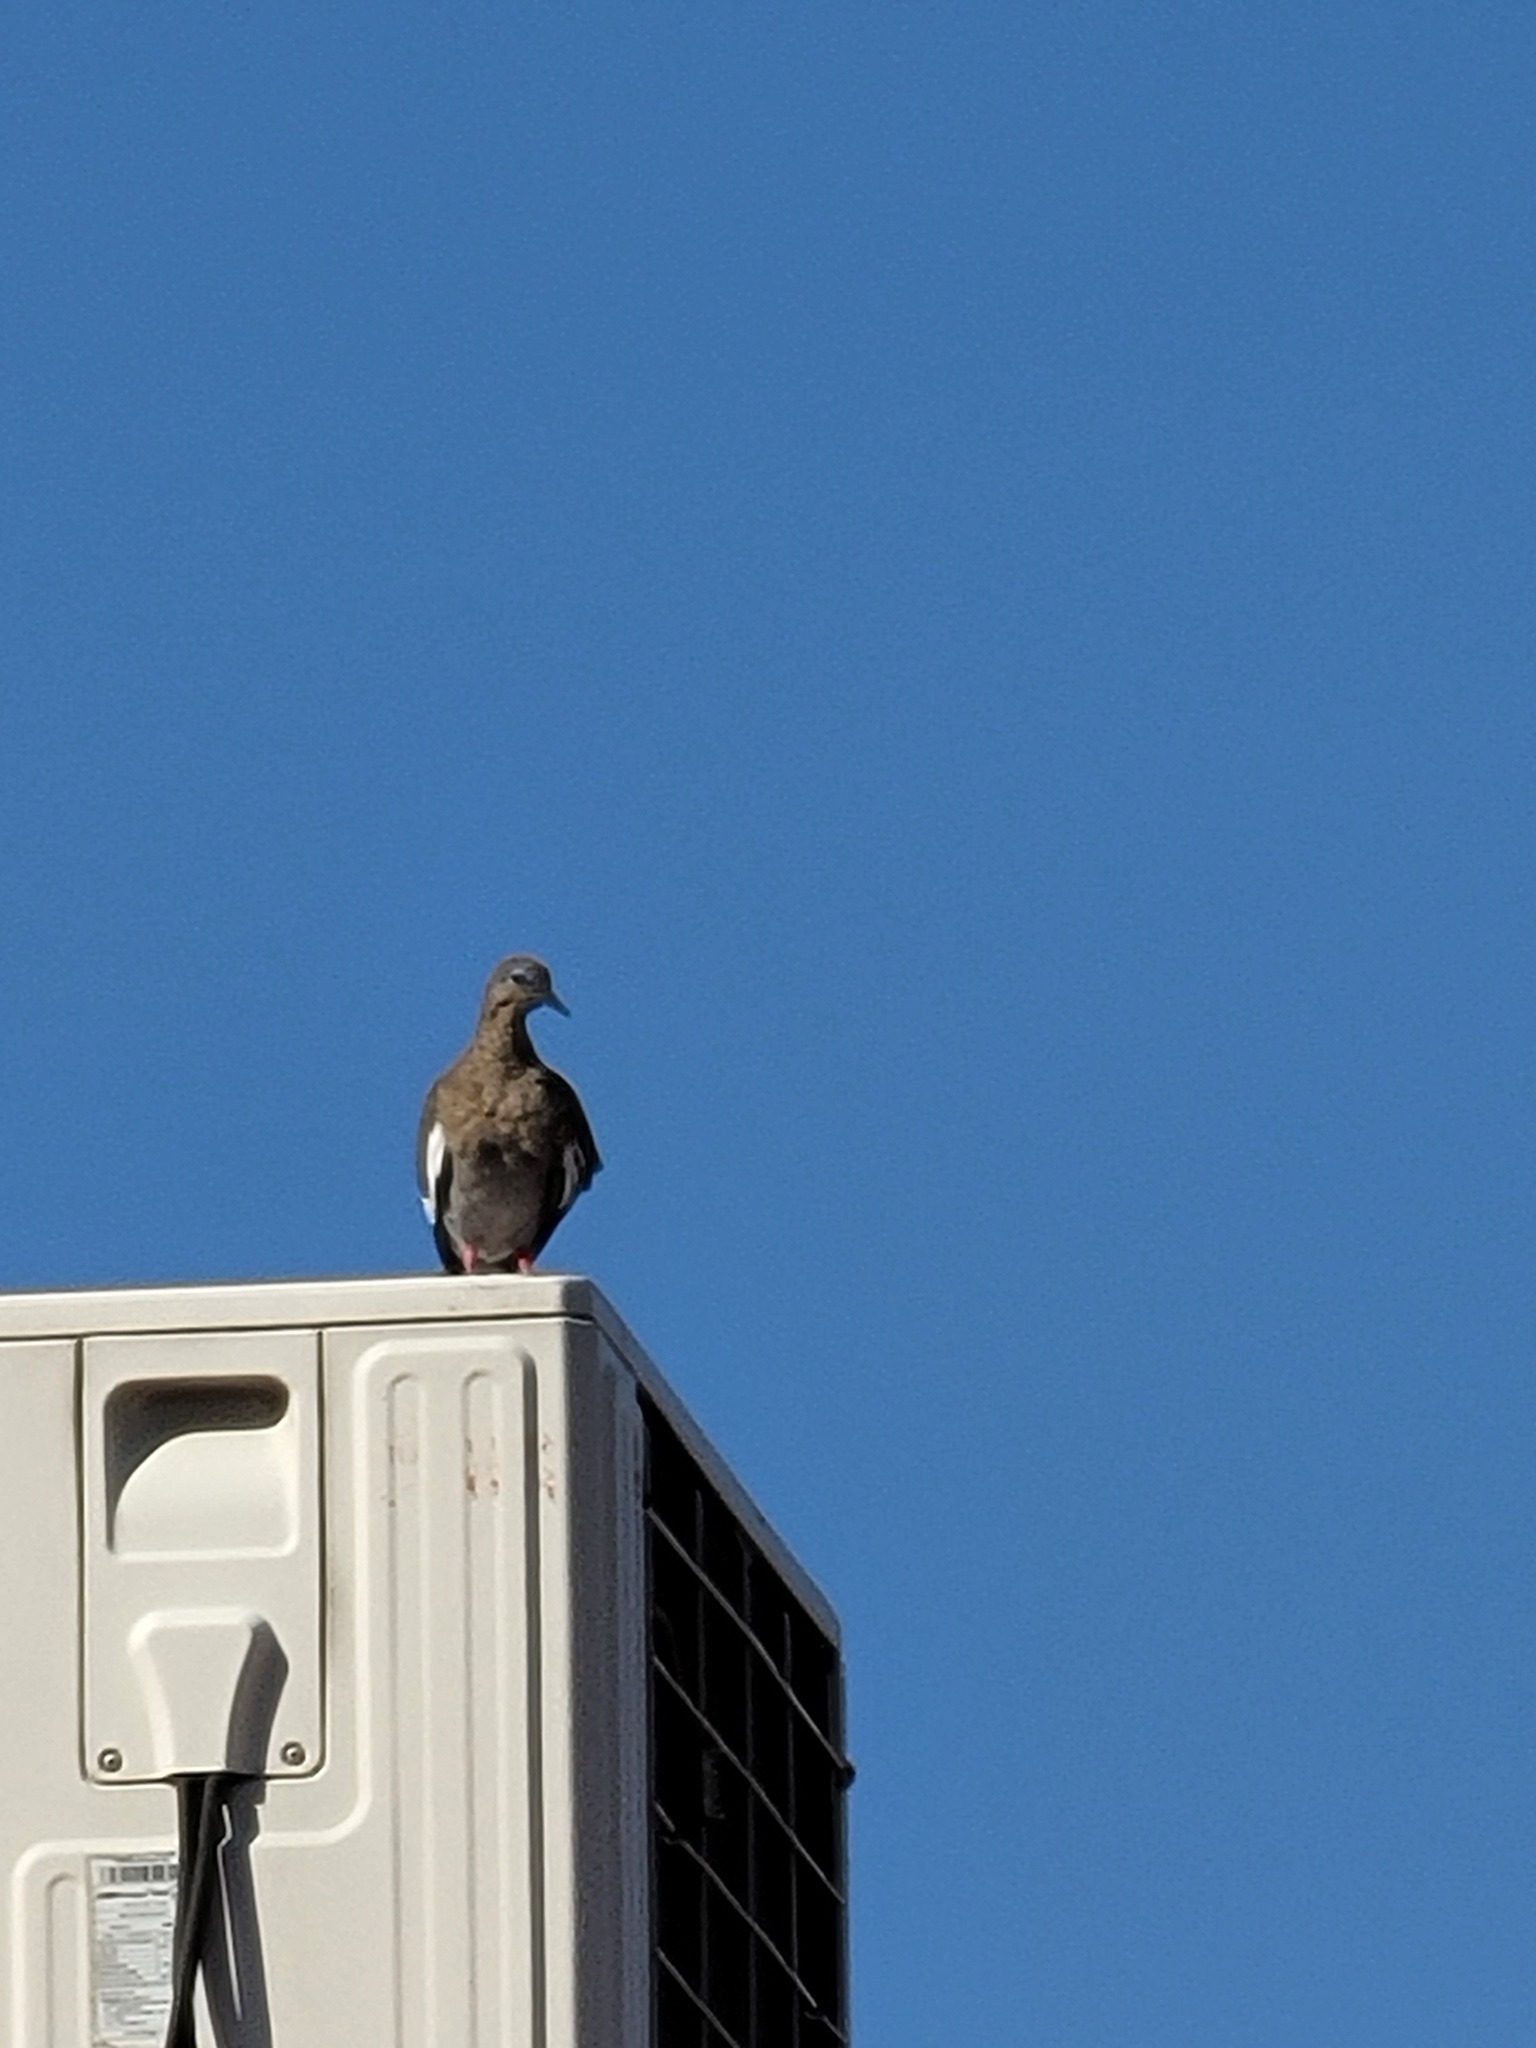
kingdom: Animalia
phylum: Chordata
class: Aves
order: Columbiformes
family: Columbidae
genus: Zenaida
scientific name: Zenaida asiatica
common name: White-winged dove
